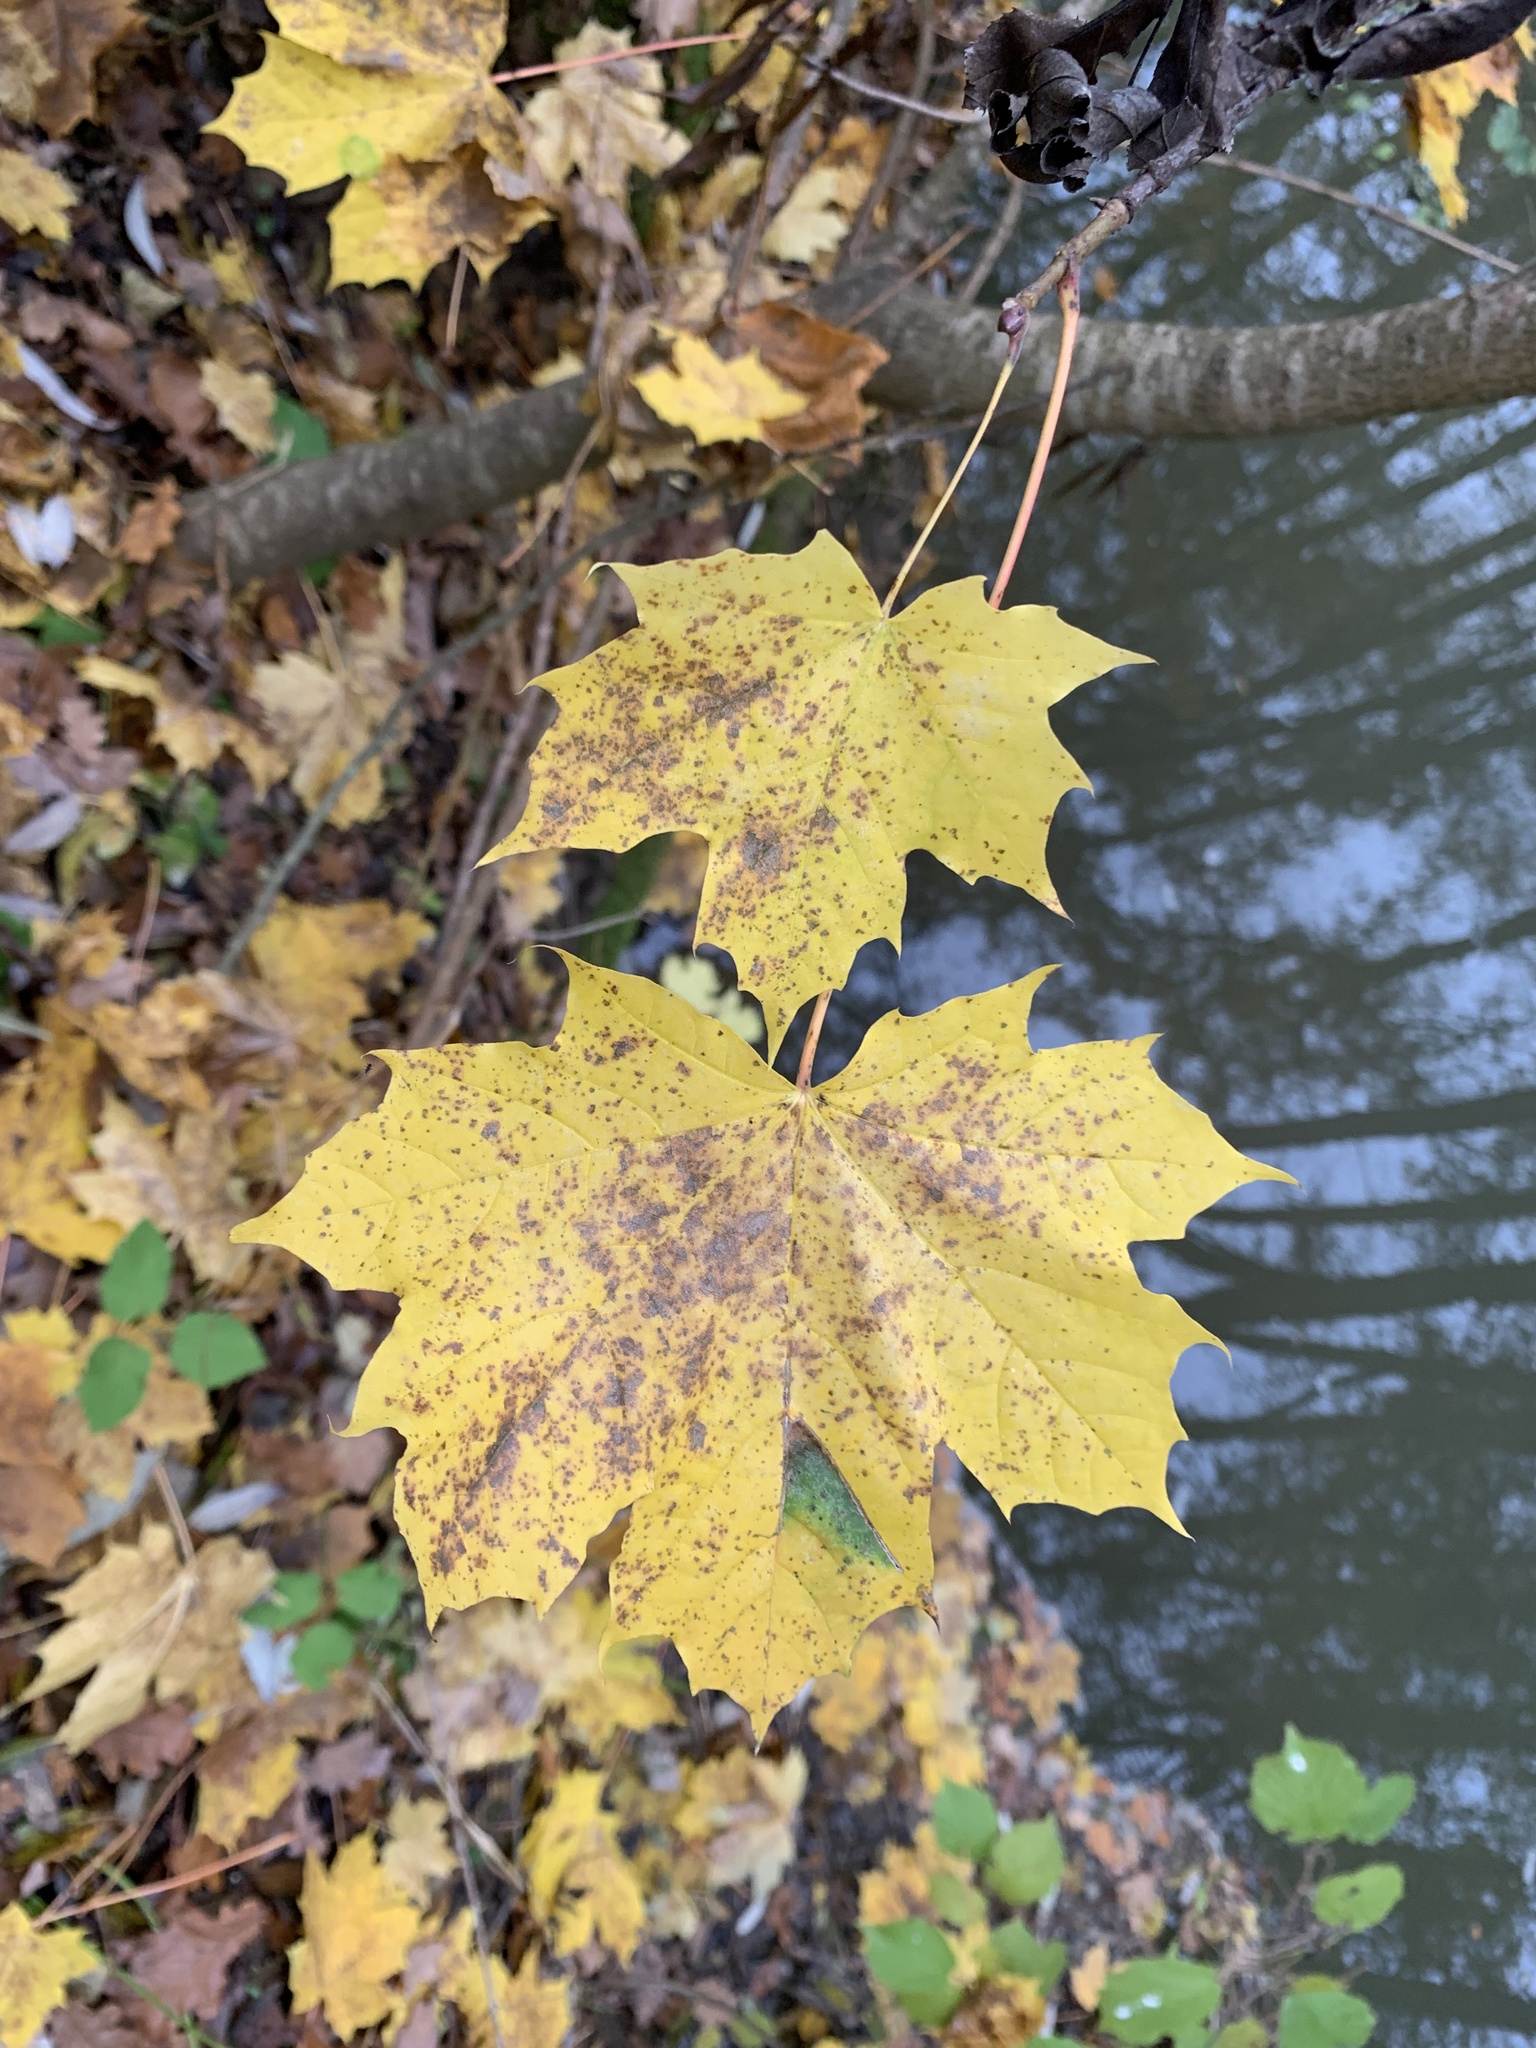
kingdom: Plantae
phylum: Tracheophyta
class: Magnoliopsida
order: Sapindales
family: Sapindaceae
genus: Acer
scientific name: Acer platanoides
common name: Norway maple
